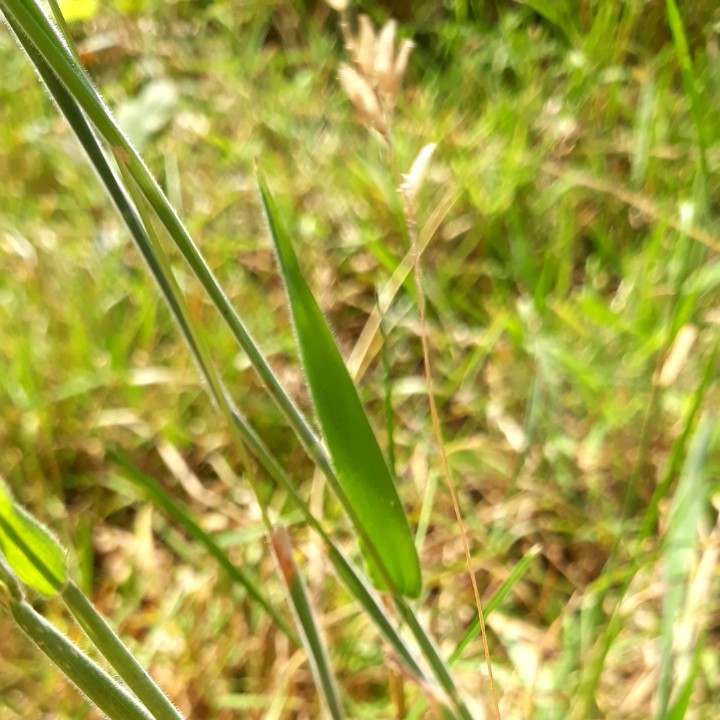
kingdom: Plantae
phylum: Tracheophyta
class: Liliopsida
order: Poales
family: Poaceae
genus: Holcus
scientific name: Holcus lanatus
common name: Yorkshire-fog
